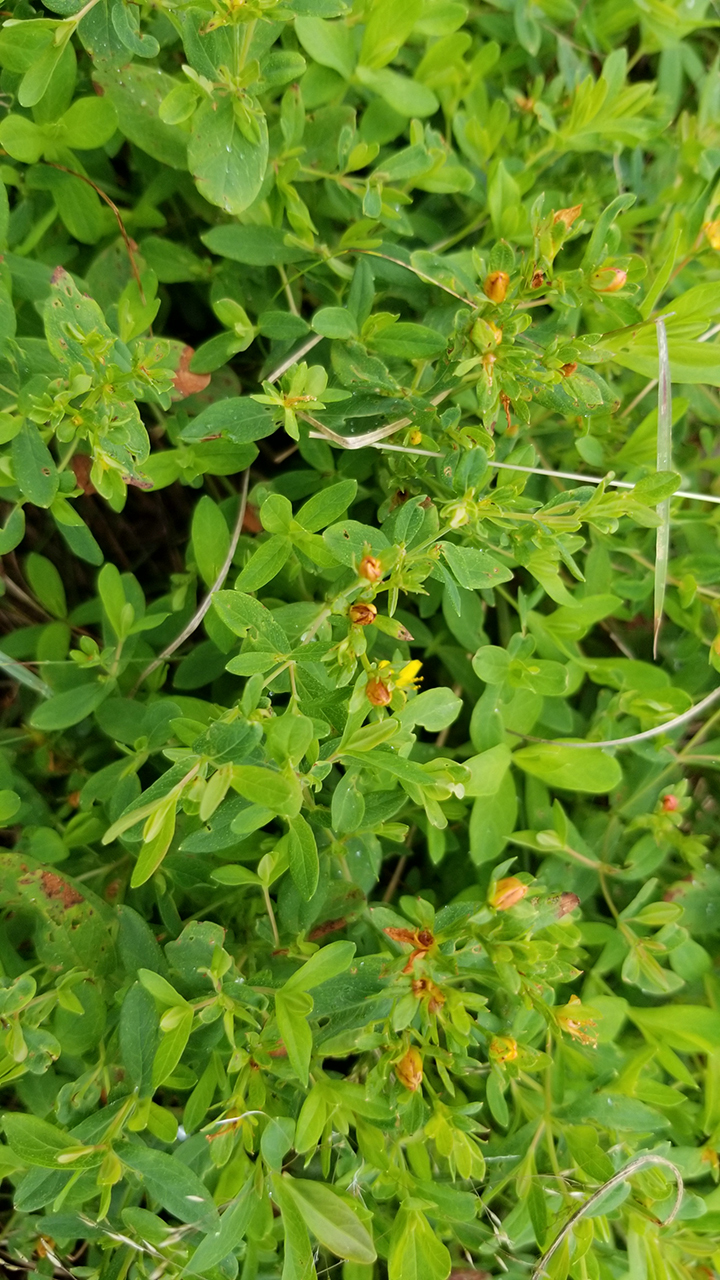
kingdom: Plantae
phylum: Tracheophyta
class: Magnoliopsida
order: Malpighiales
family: Hypericaceae
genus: Hypericum
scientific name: Hypericum ellipticum
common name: Elliptic st. john's-wort
